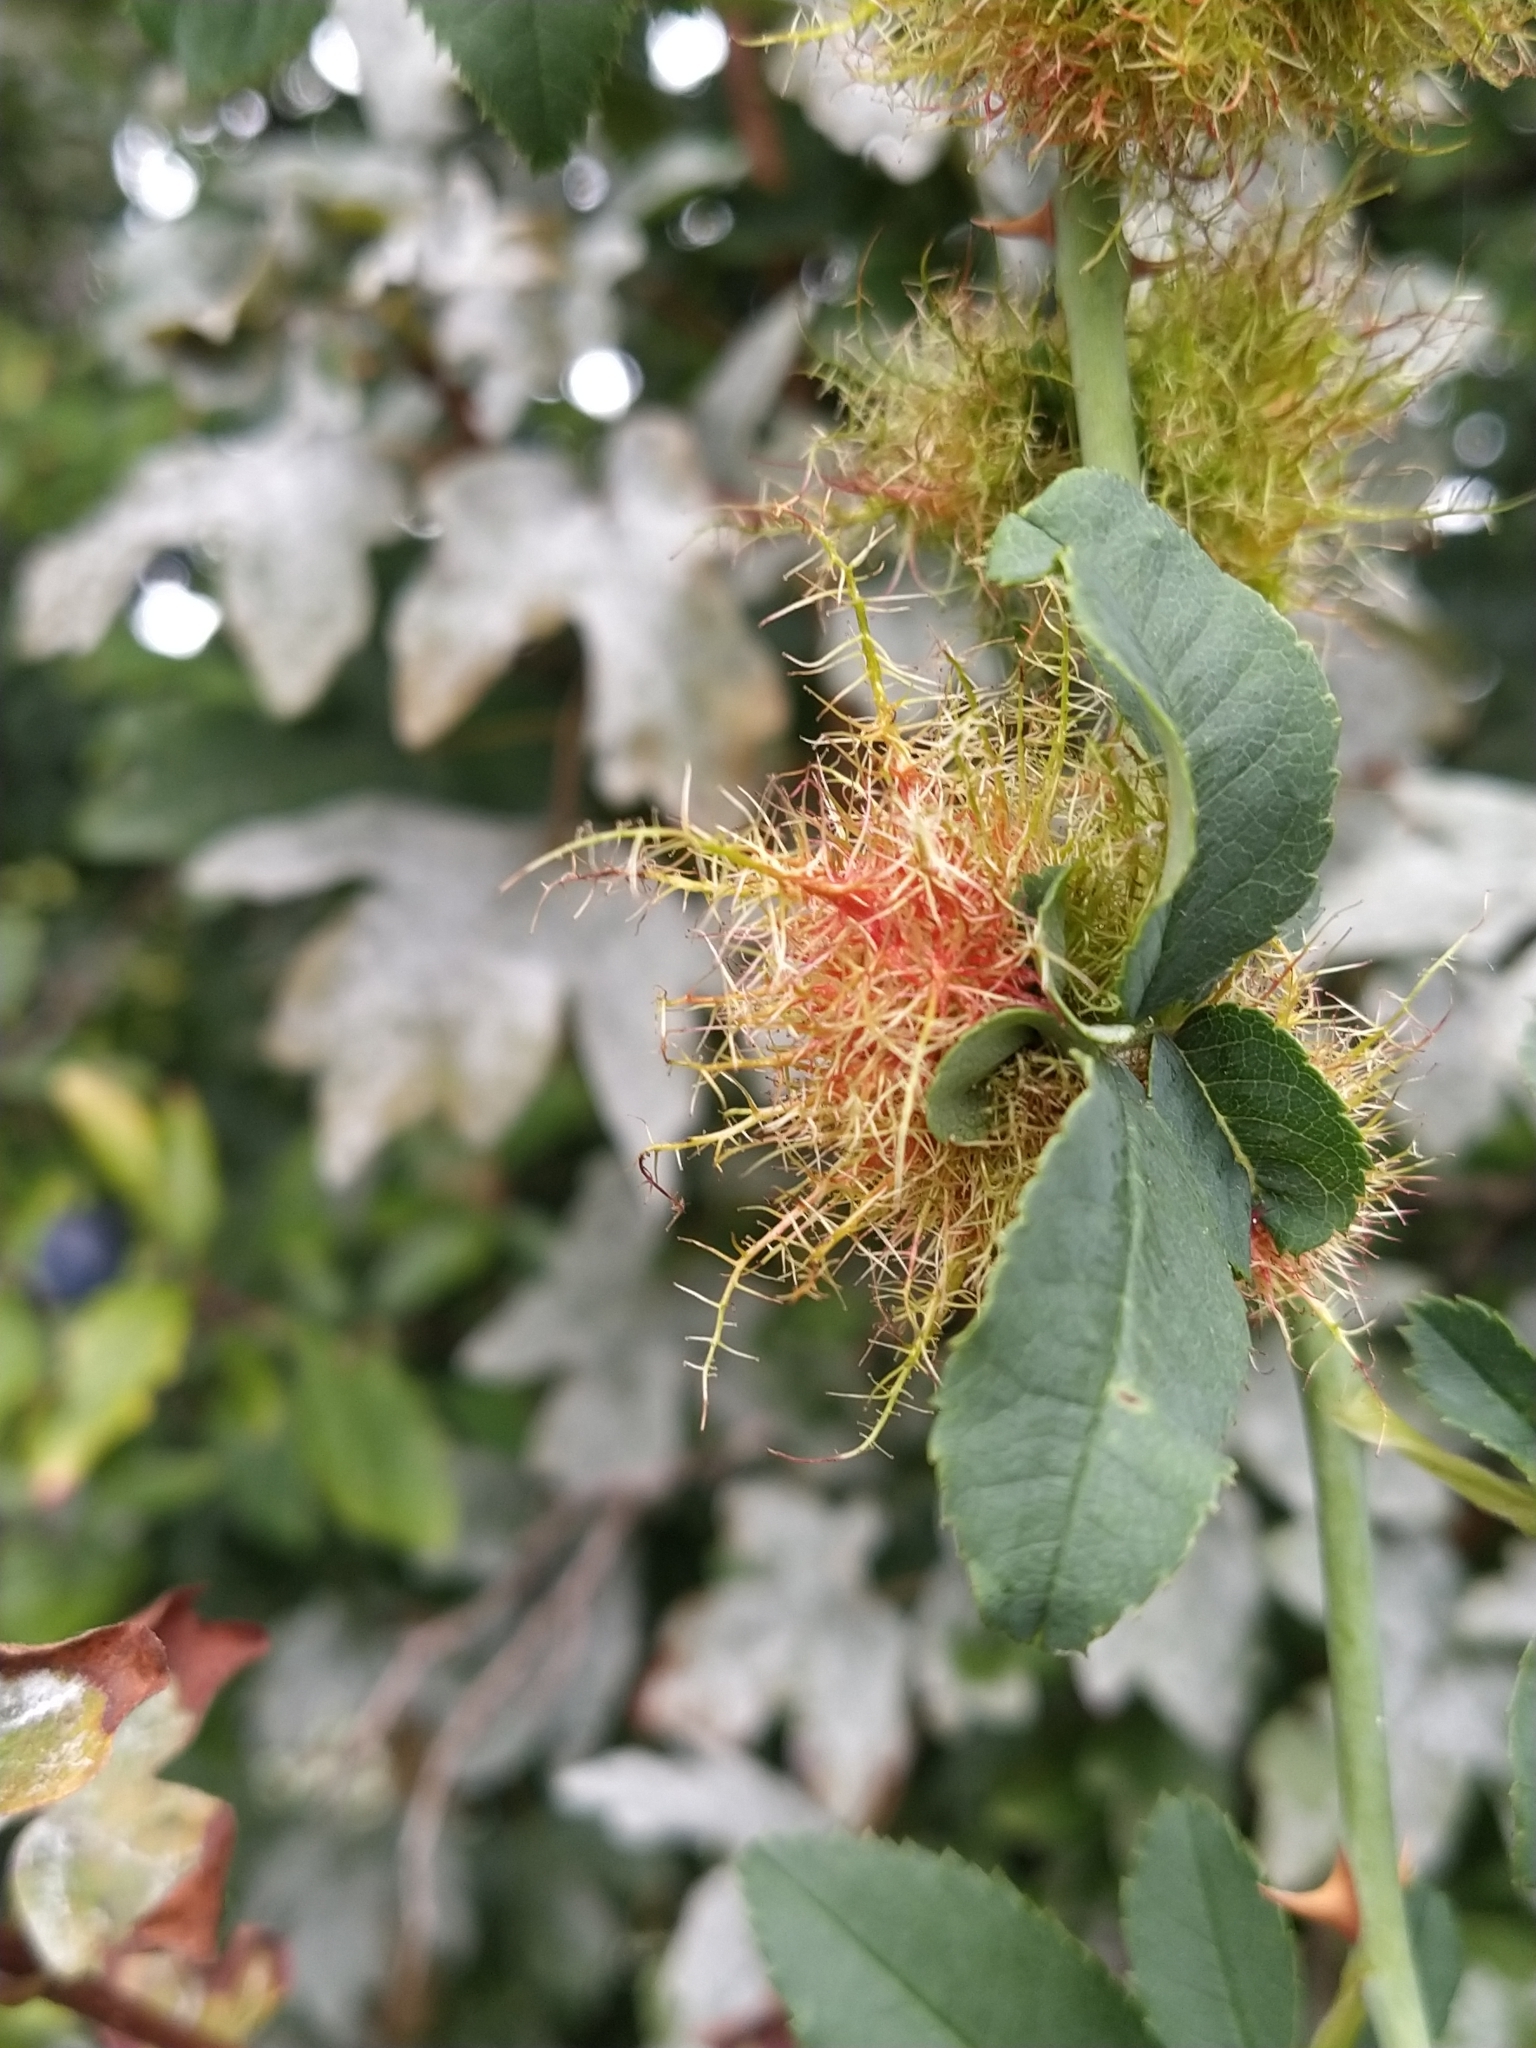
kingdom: Animalia
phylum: Arthropoda
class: Insecta
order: Hymenoptera
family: Cynipidae
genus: Diplolepis
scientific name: Diplolepis rosae
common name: Bedeguar gall
